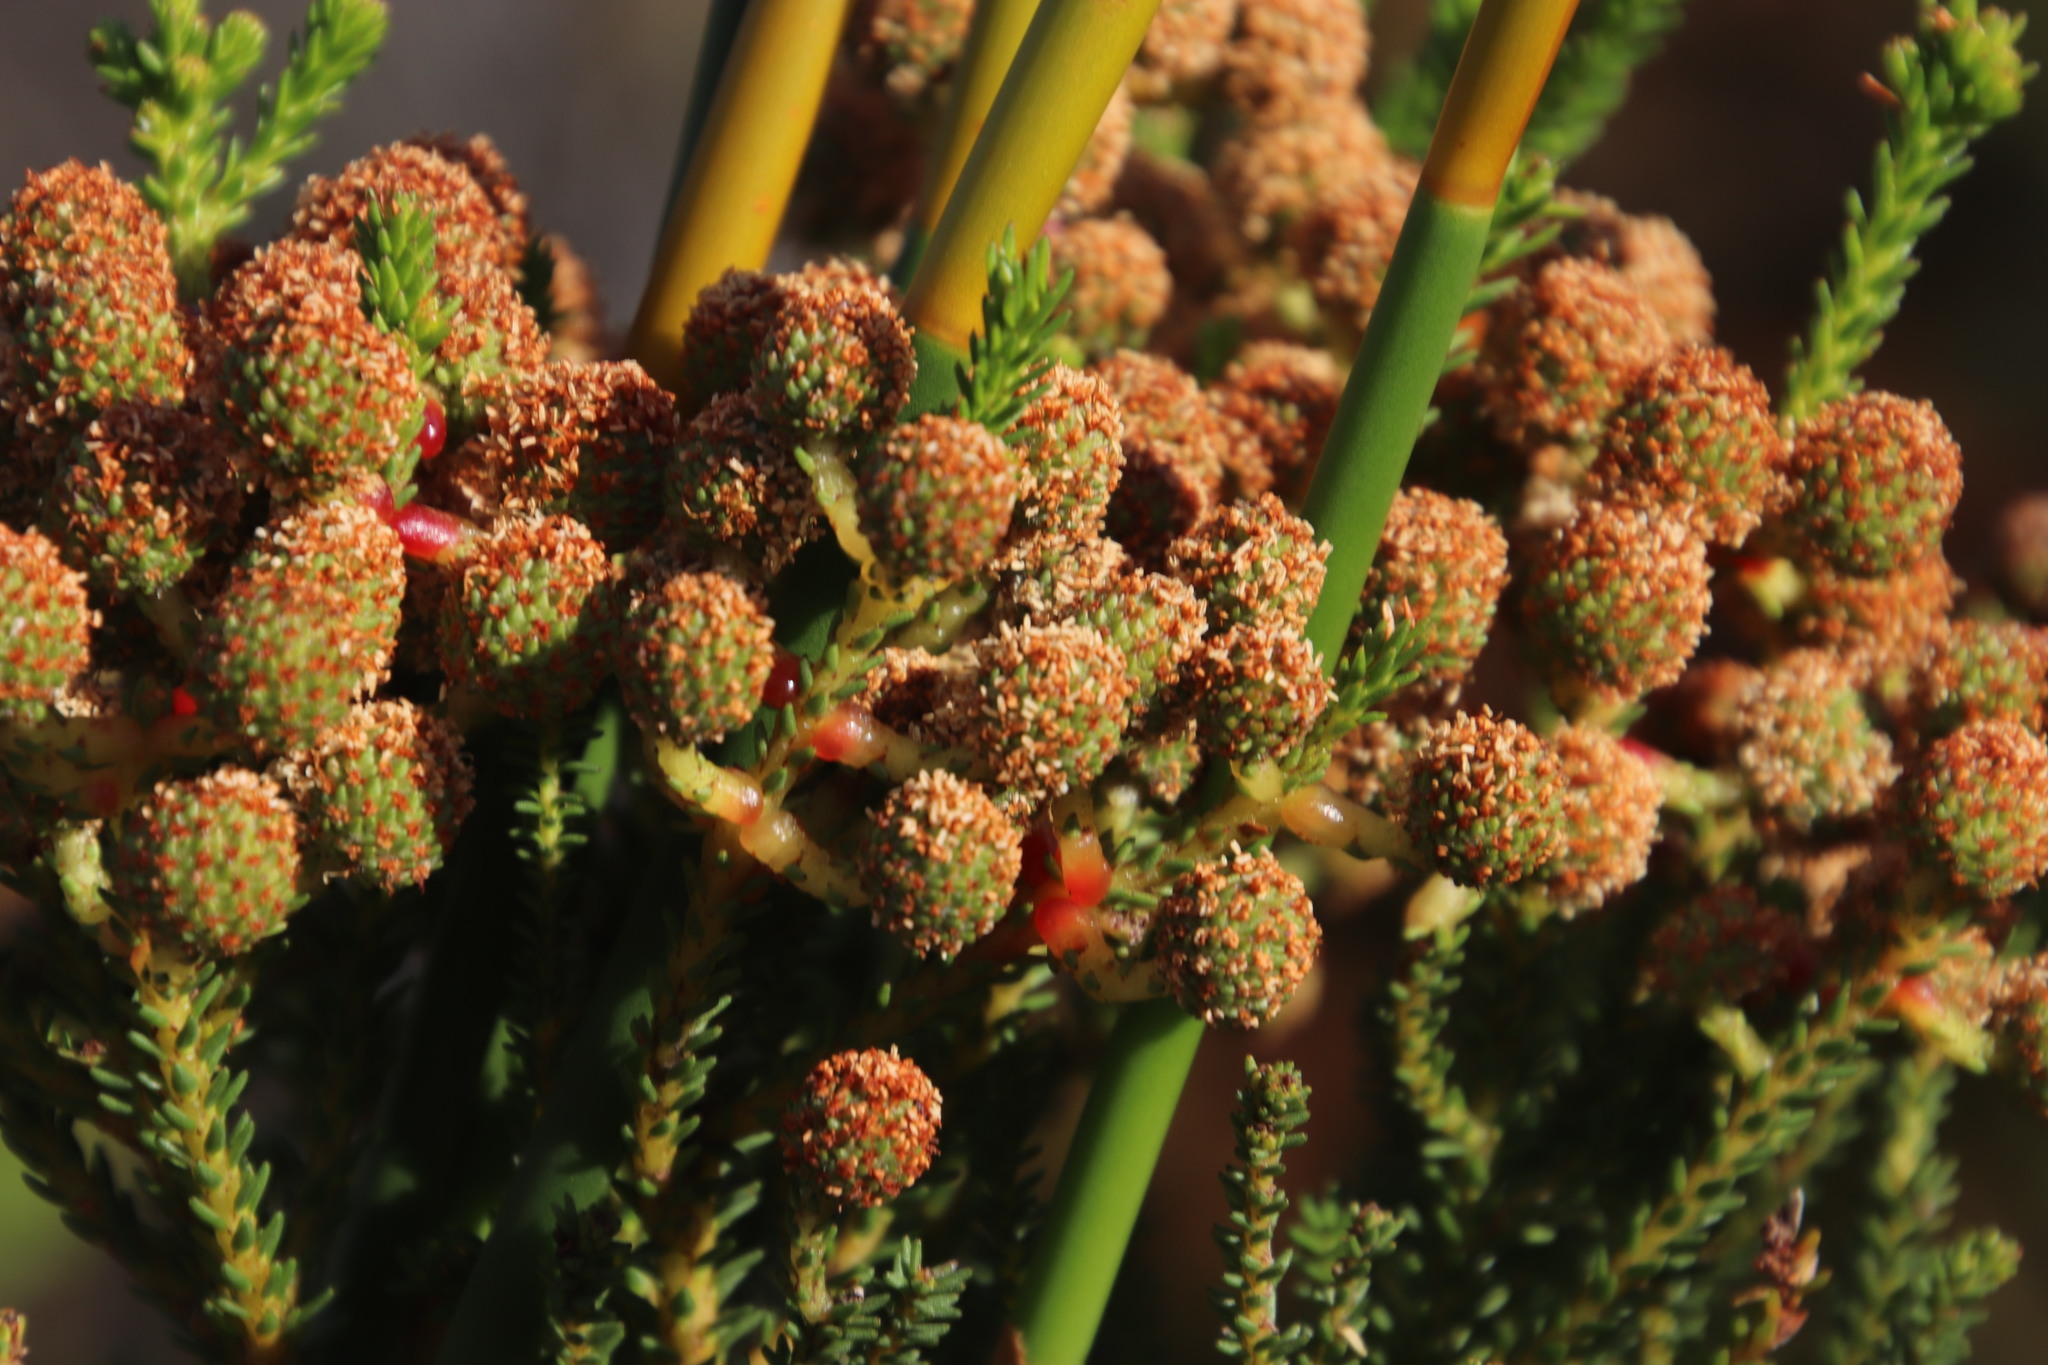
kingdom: Plantae
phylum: Tracheophyta
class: Magnoliopsida
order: Bruniales
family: Bruniaceae
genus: Berzelia
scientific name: Berzelia abrotanoides
